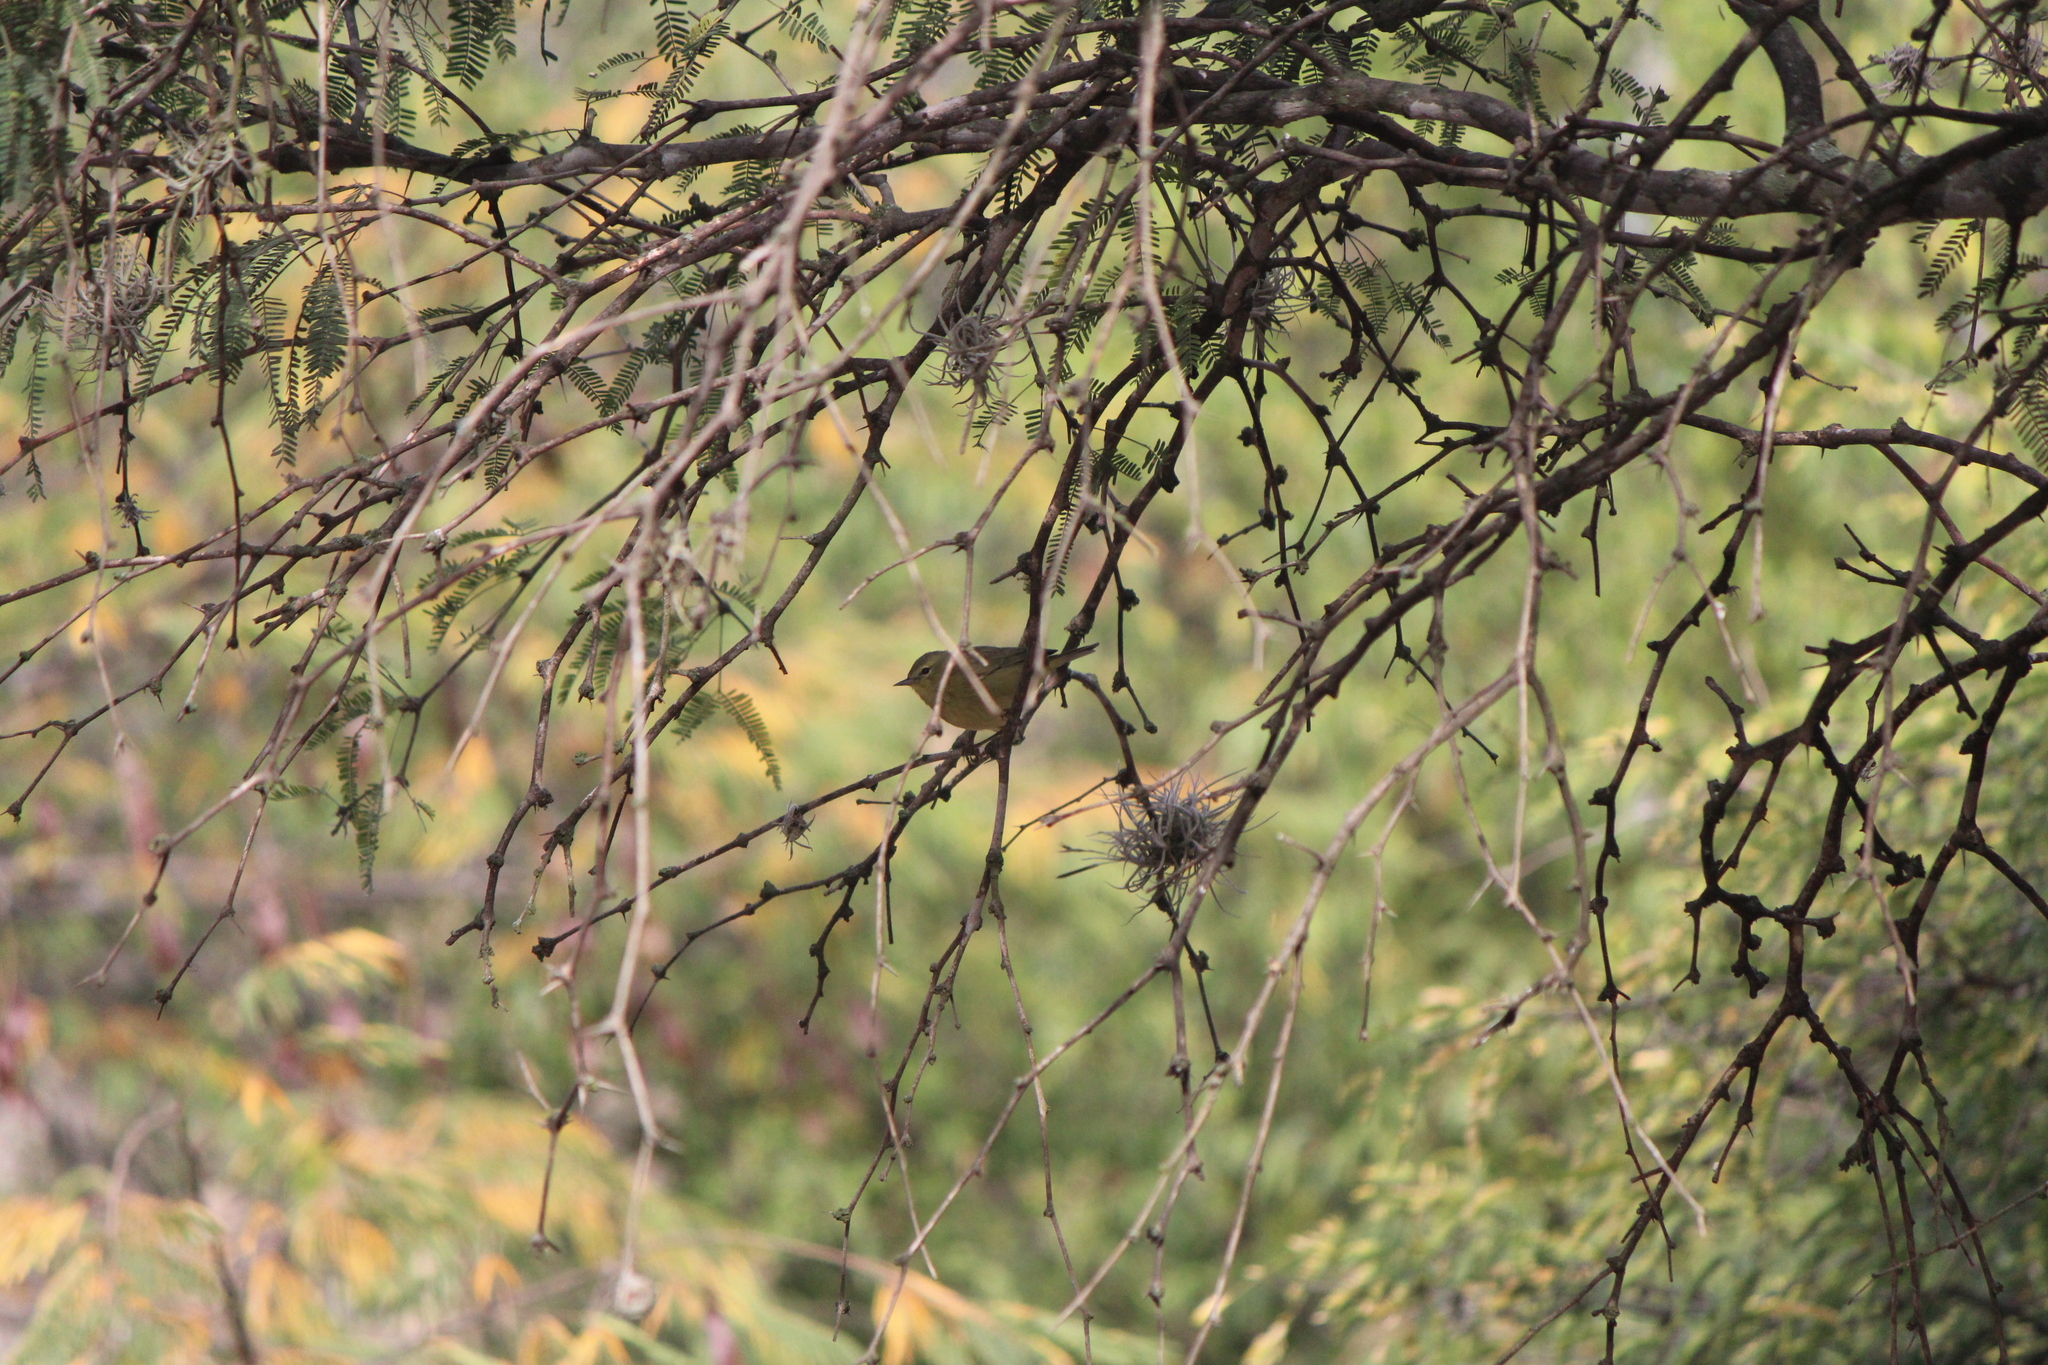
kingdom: Animalia
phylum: Chordata
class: Aves
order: Passeriformes
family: Parulidae
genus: Leiothlypis
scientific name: Leiothlypis celata
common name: Orange-crowned warbler
